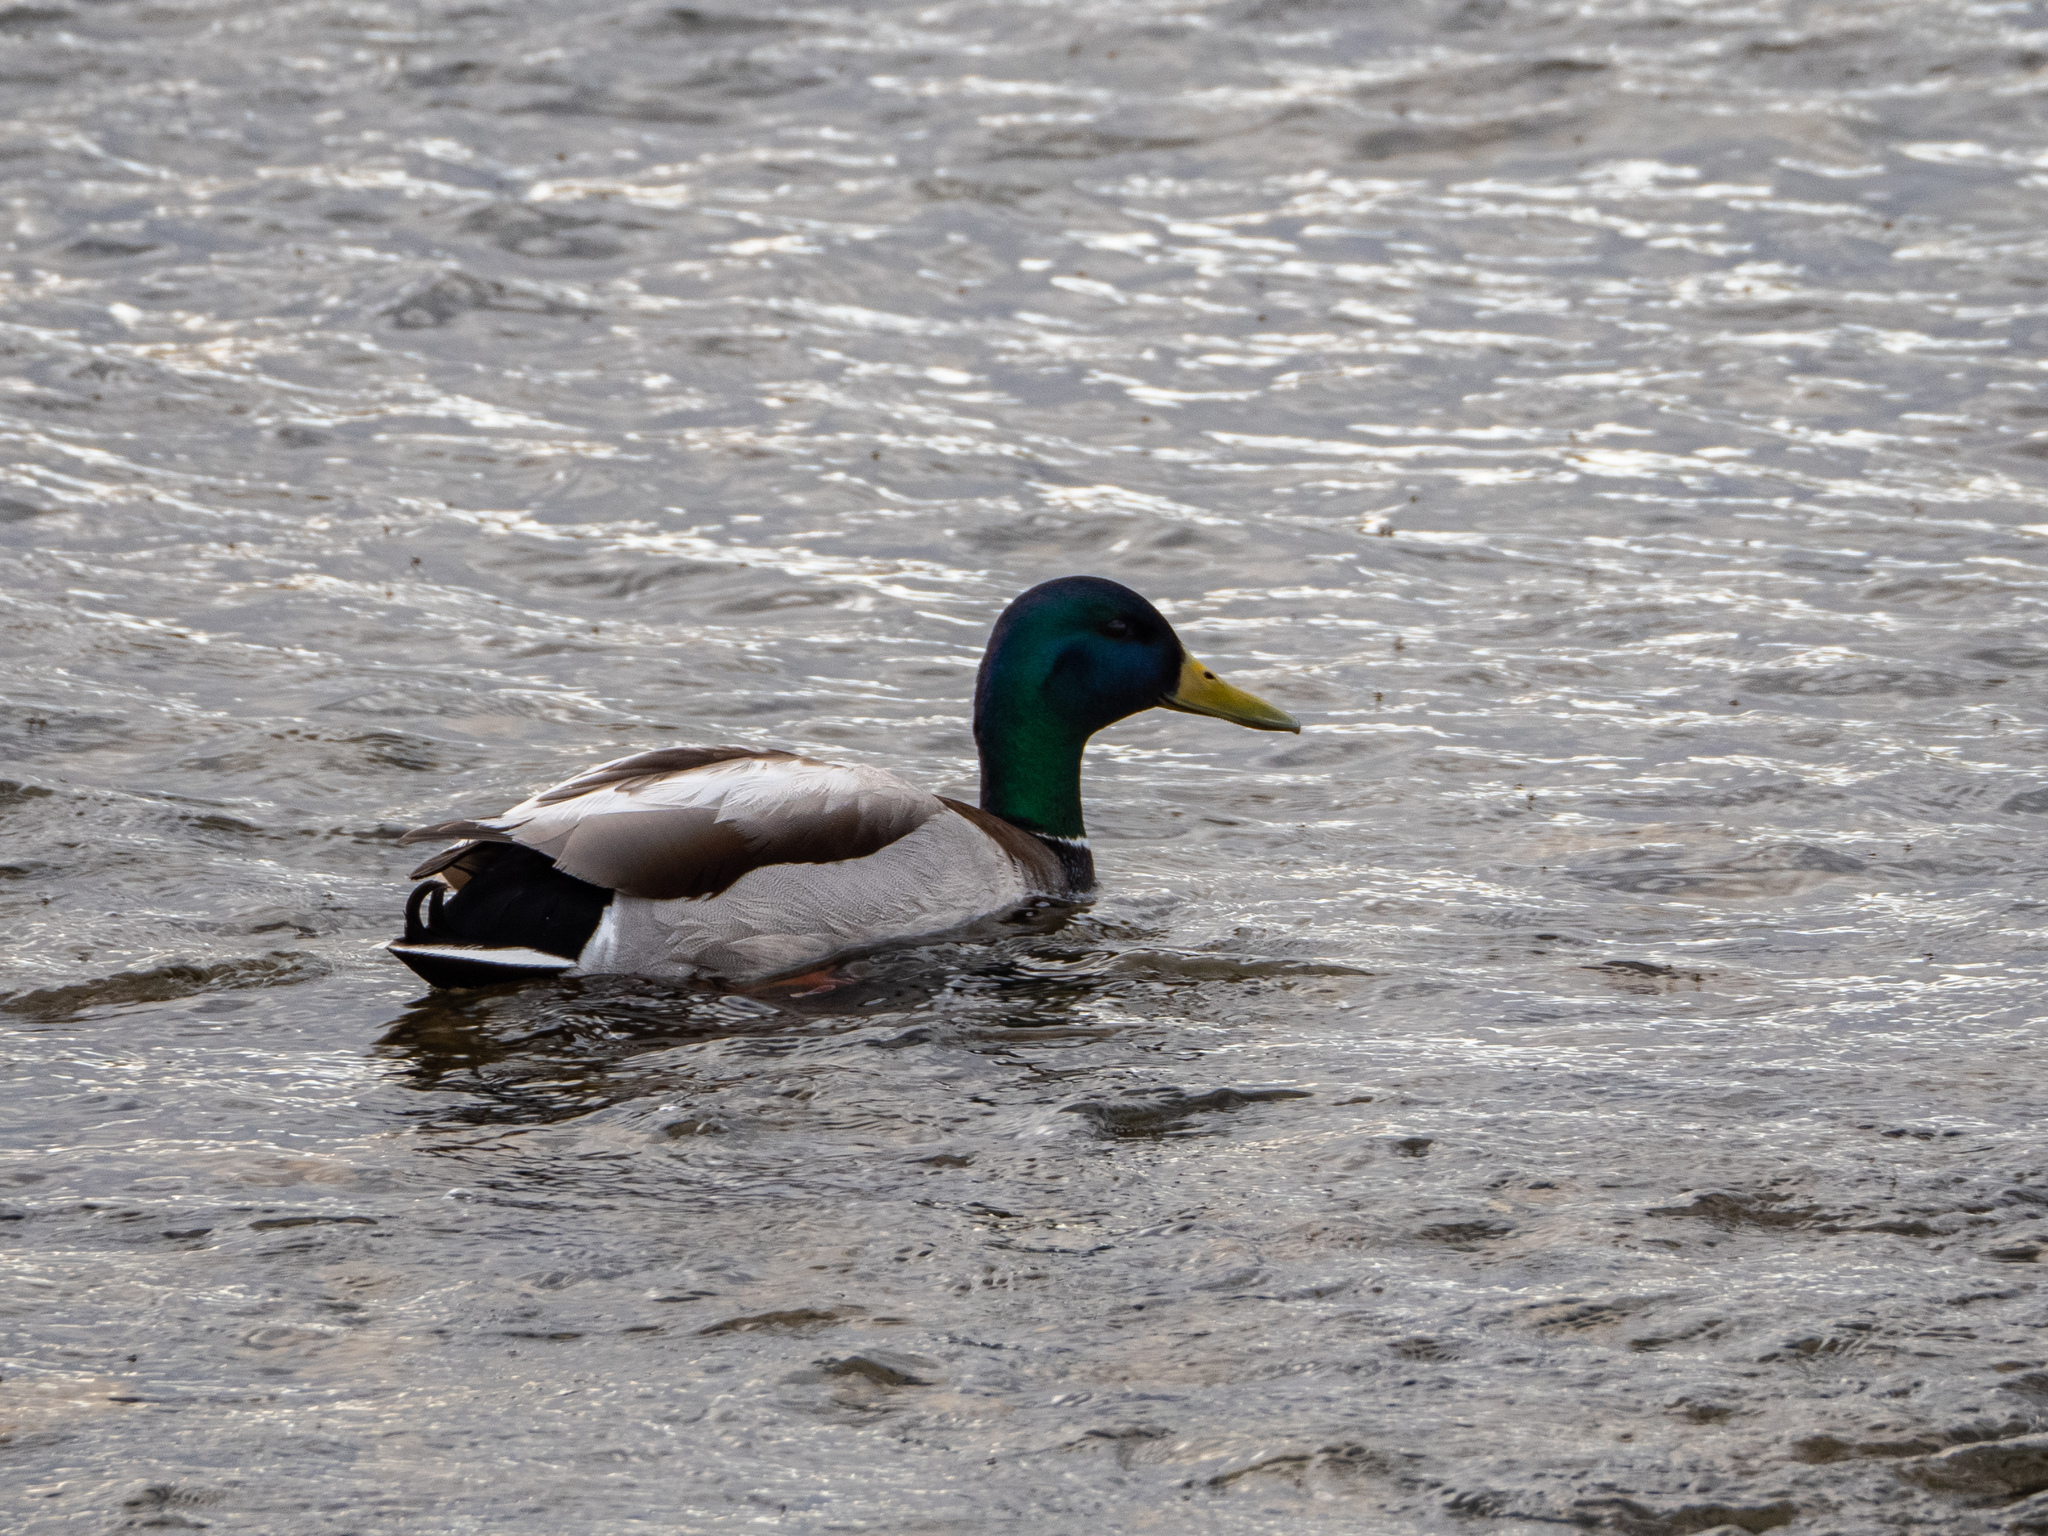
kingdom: Animalia
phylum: Chordata
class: Aves
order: Anseriformes
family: Anatidae
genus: Anas
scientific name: Anas platyrhynchos
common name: Mallard
